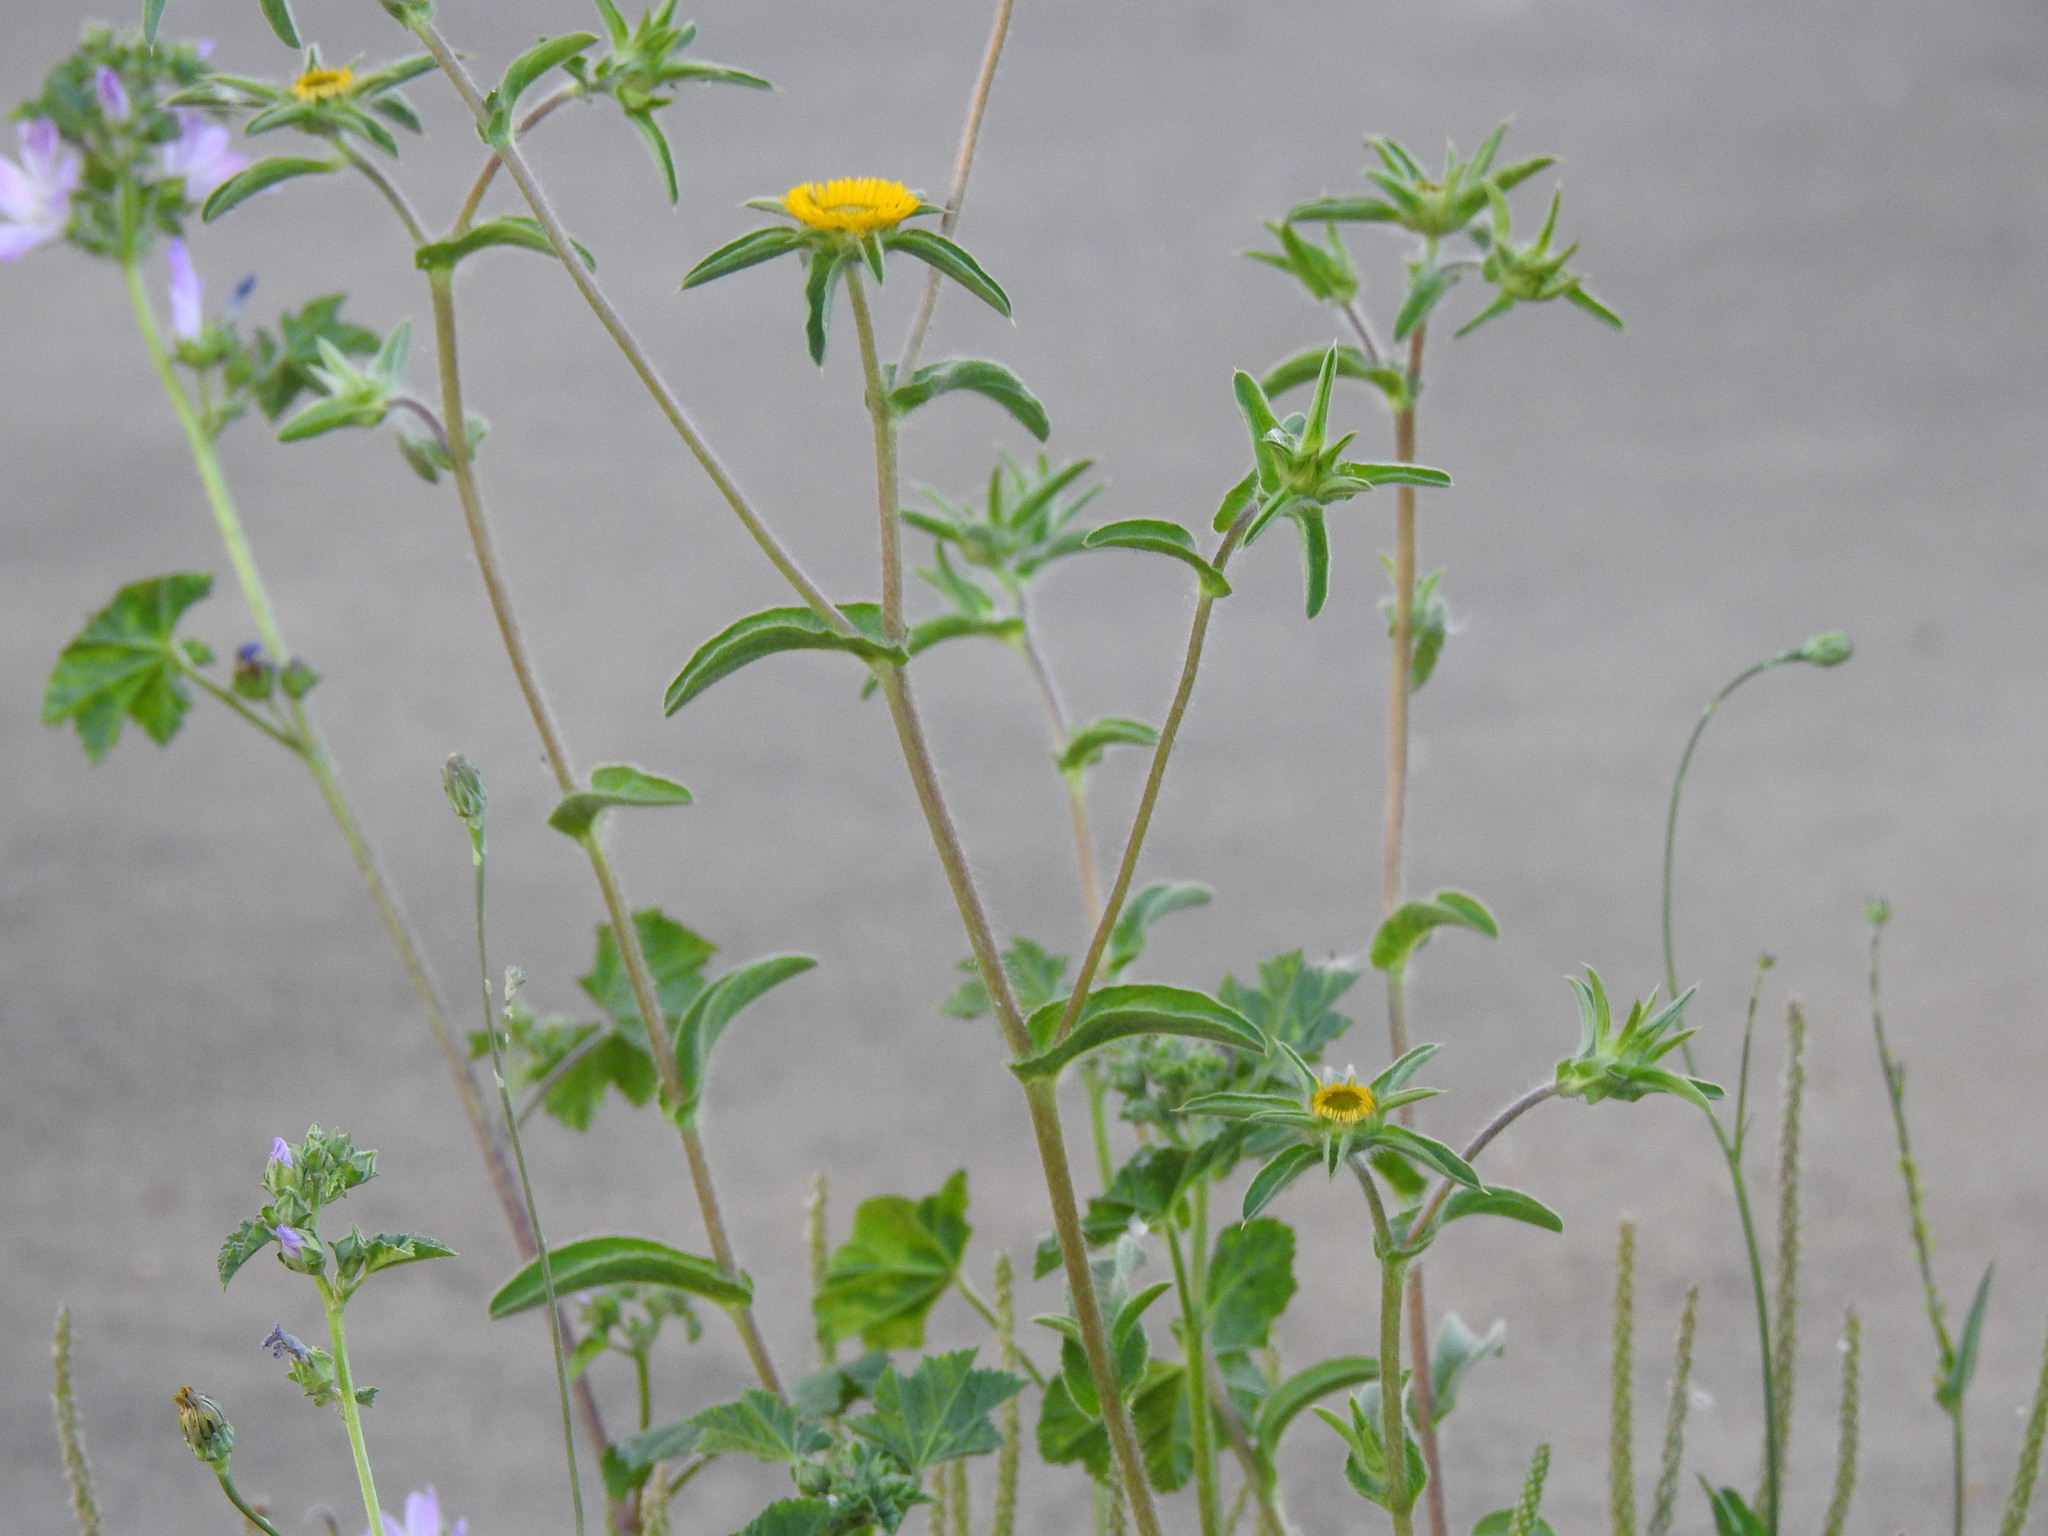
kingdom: Plantae
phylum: Tracheophyta
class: Magnoliopsida
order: Asterales
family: Asteraceae
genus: Pallenis
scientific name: Pallenis spinosa
